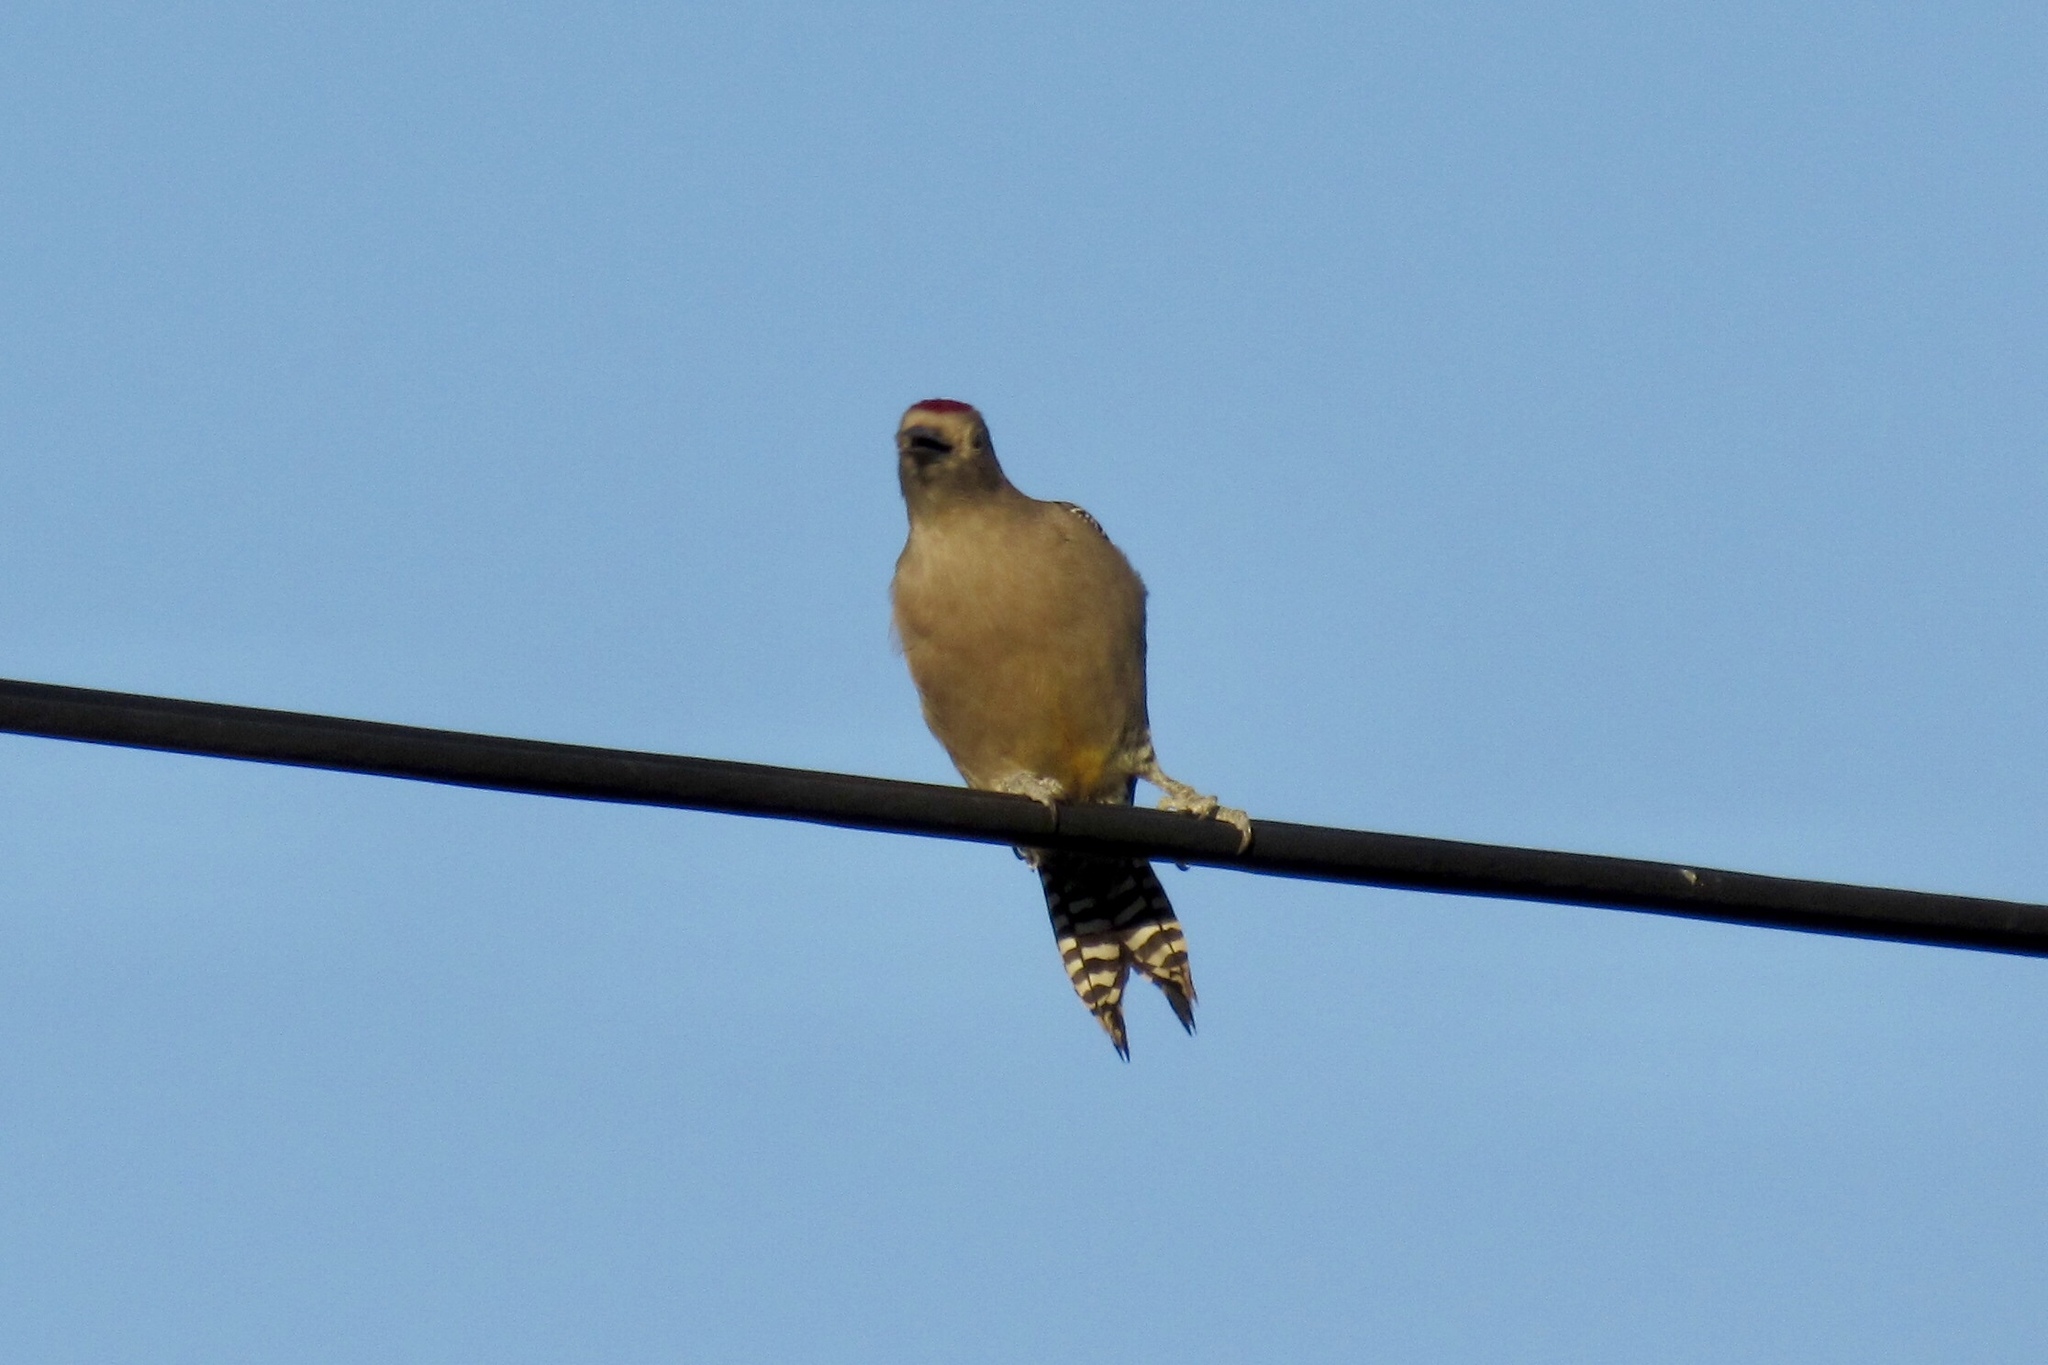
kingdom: Animalia
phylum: Chordata
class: Aves
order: Piciformes
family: Picidae
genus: Melanerpes
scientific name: Melanerpes uropygialis
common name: Gila woodpecker
